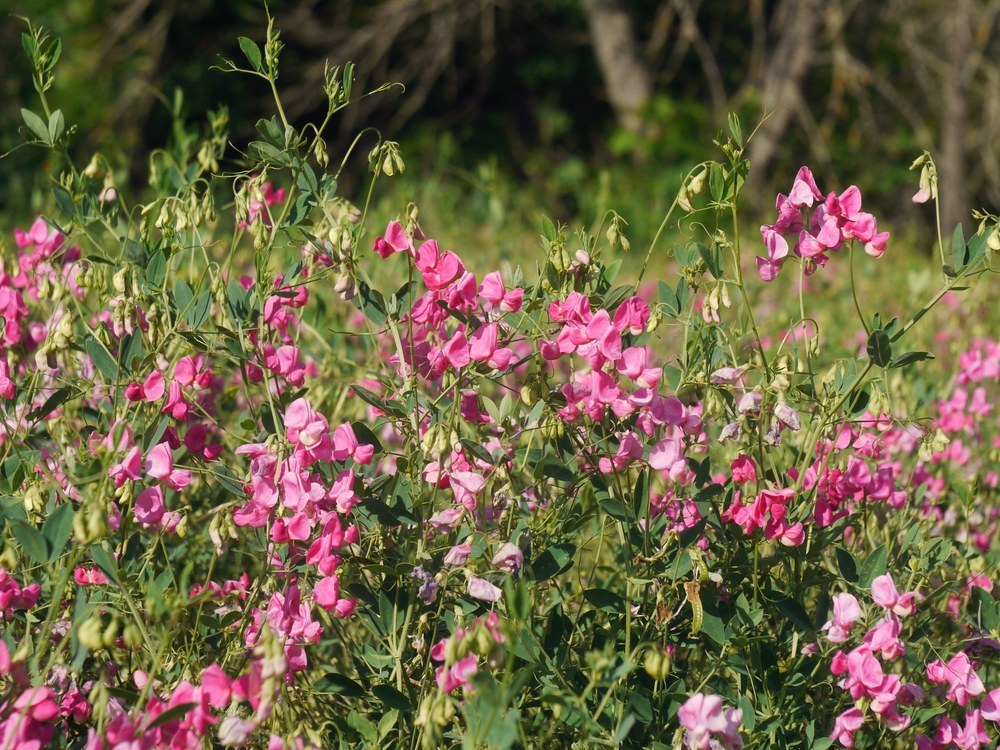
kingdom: Plantae
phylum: Tracheophyta
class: Magnoliopsida
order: Fabales
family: Fabaceae
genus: Lathyrus
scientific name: Lathyrus tuberosus
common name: Tuberous pea
